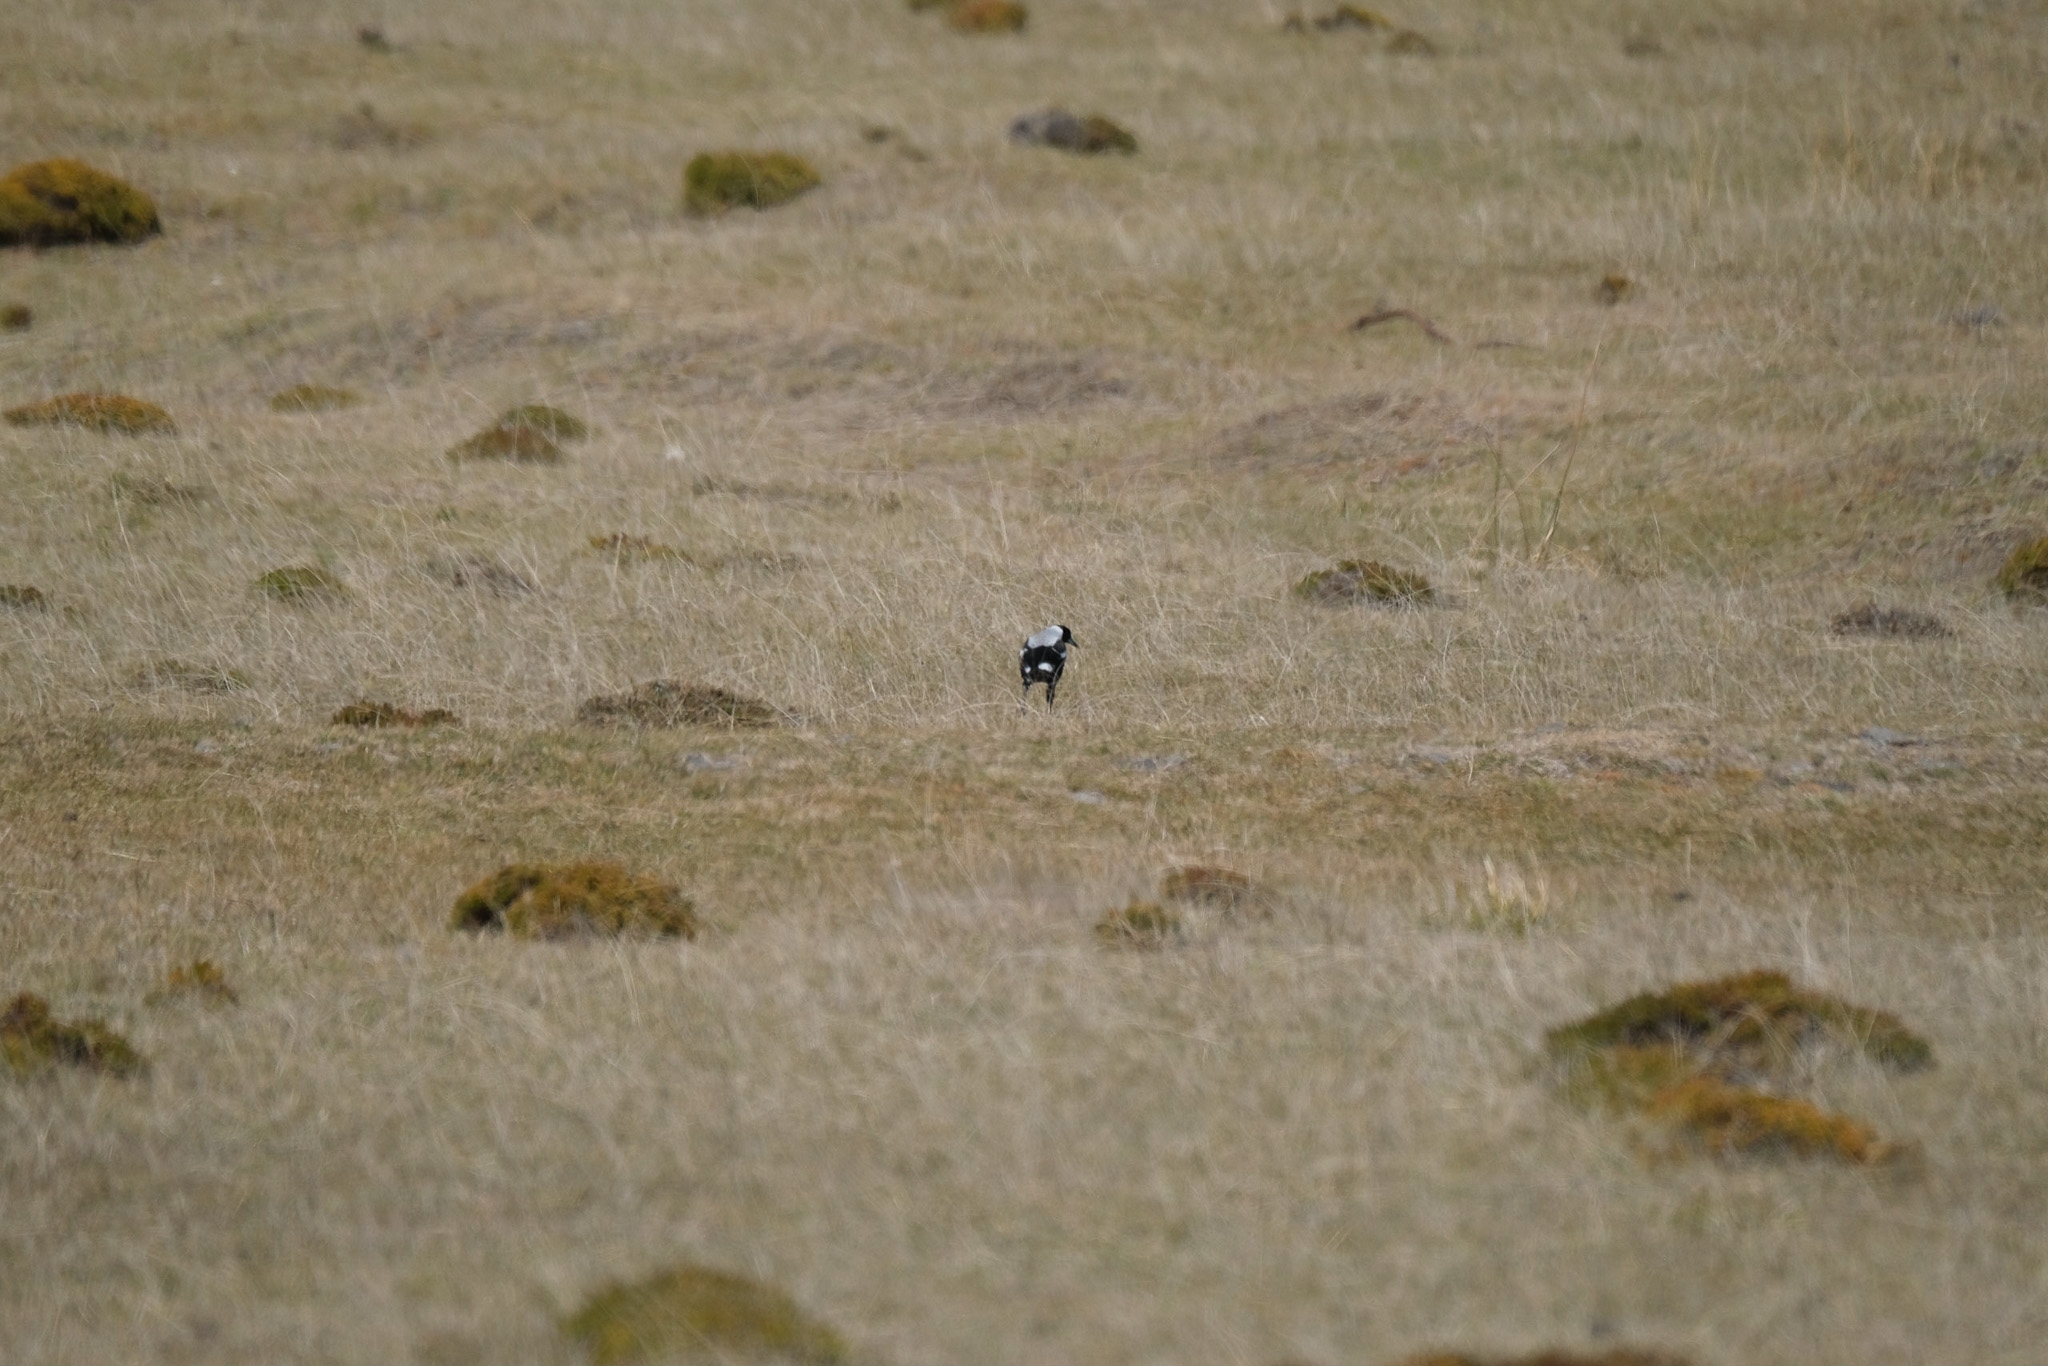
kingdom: Animalia
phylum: Chordata
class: Aves
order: Passeriformes
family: Cracticidae
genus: Gymnorhina
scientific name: Gymnorhina tibicen
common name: Australian magpie
